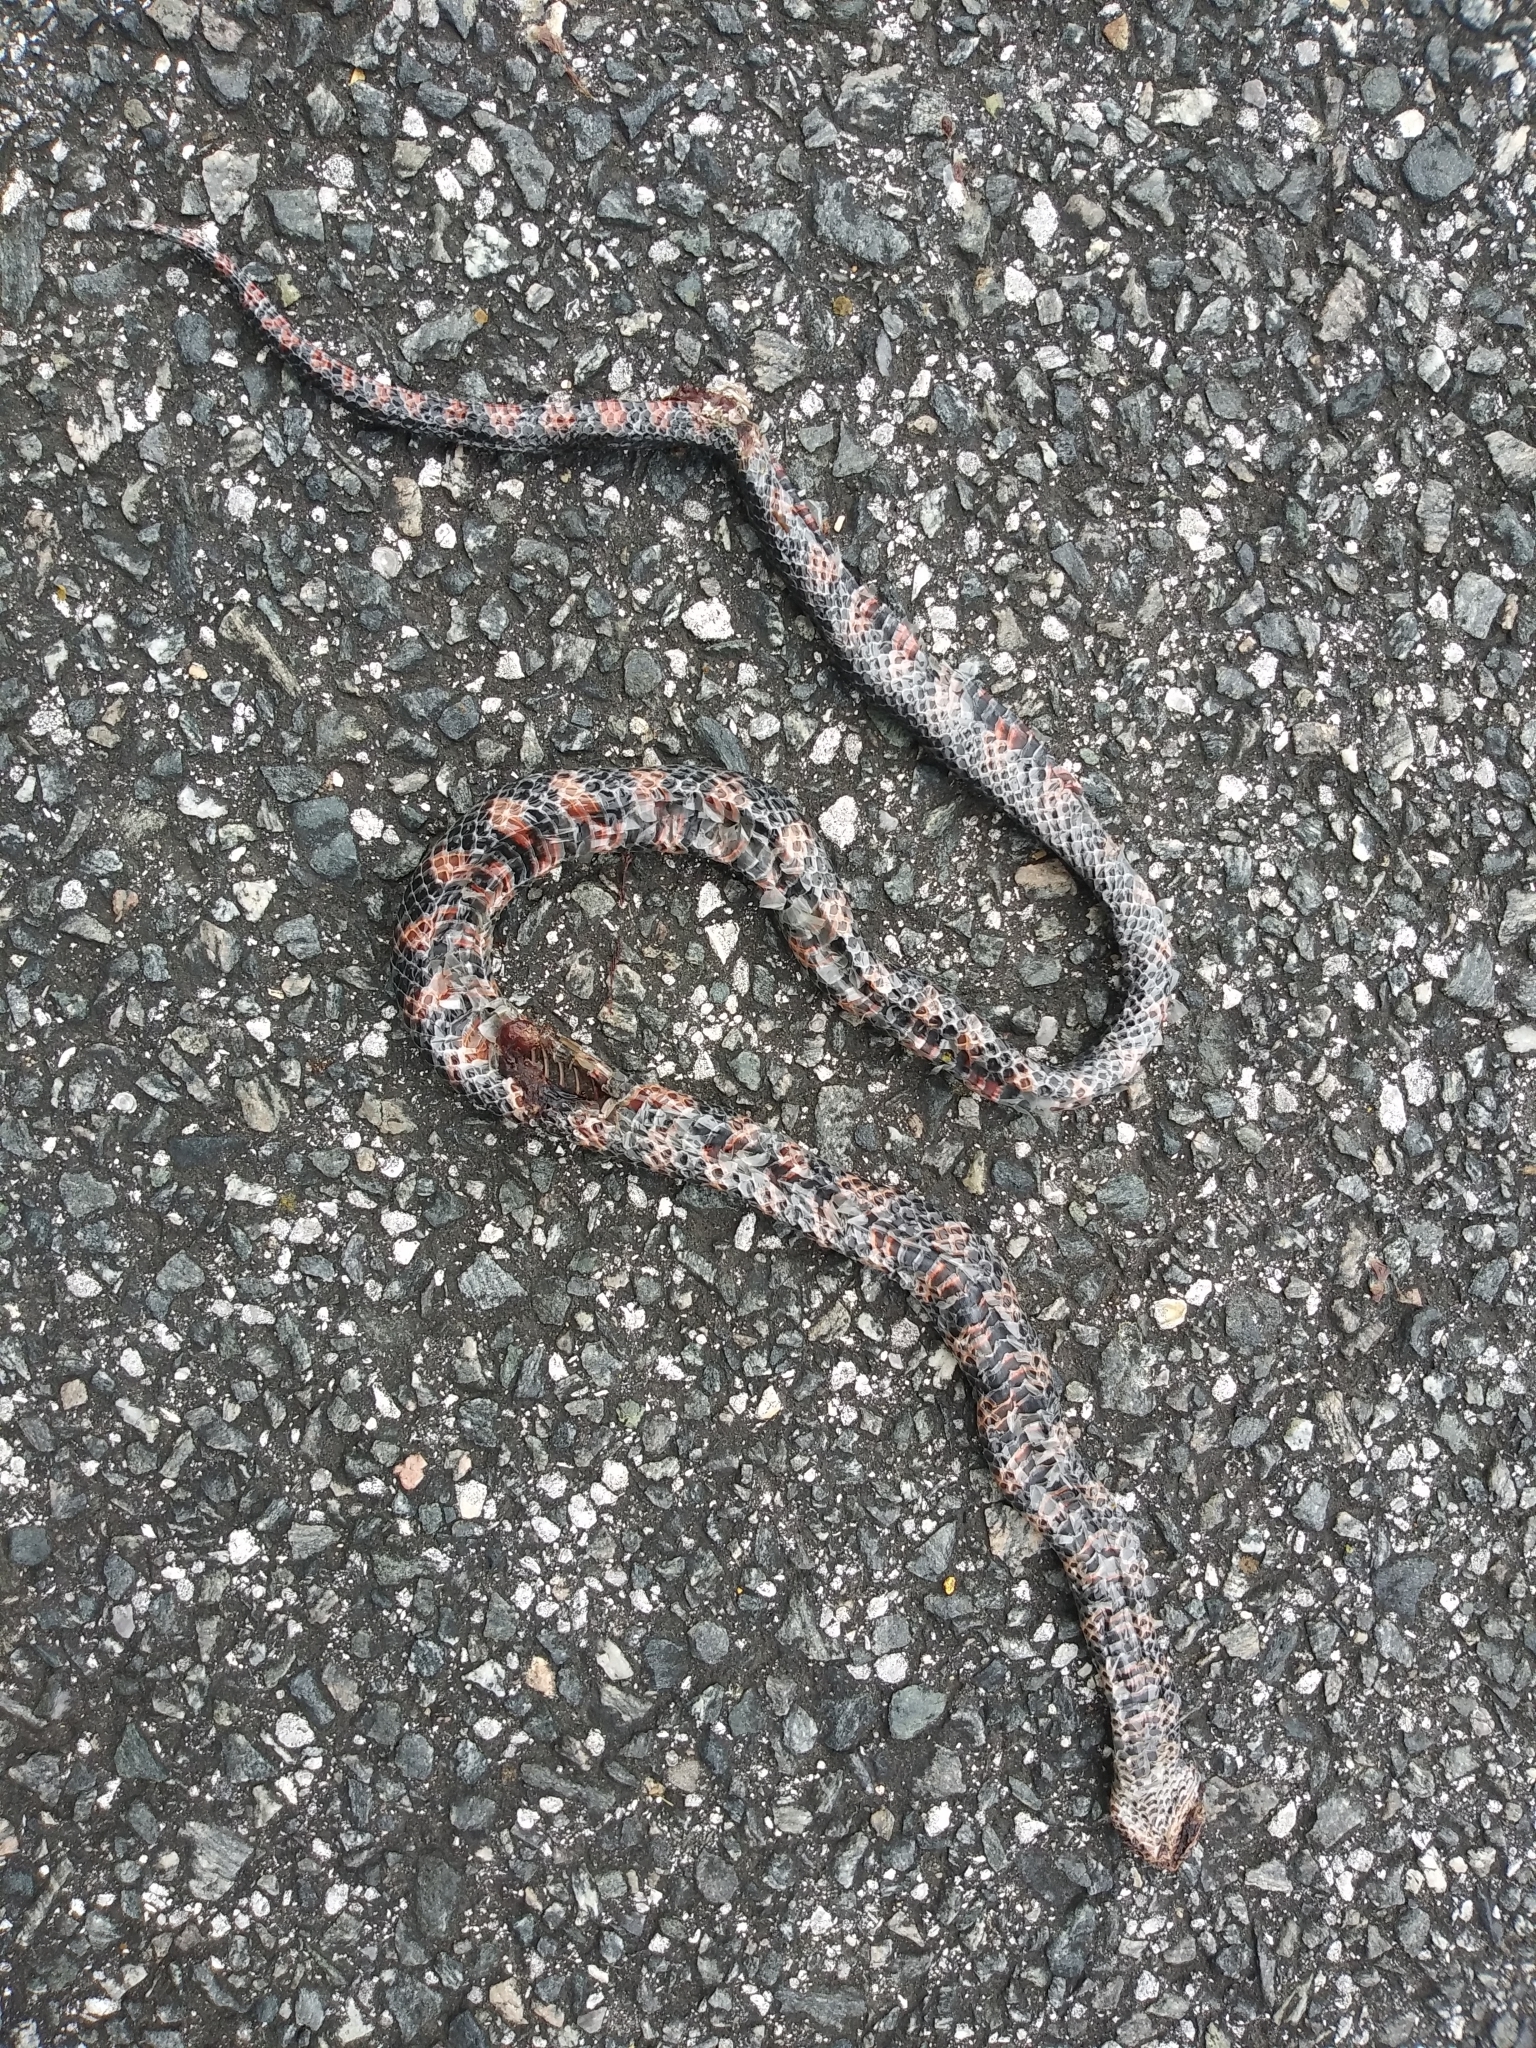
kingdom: Animalia
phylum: Chordata
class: Squamata
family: Colubridae
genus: Farancia
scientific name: Farancia abacura
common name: Mud snake
